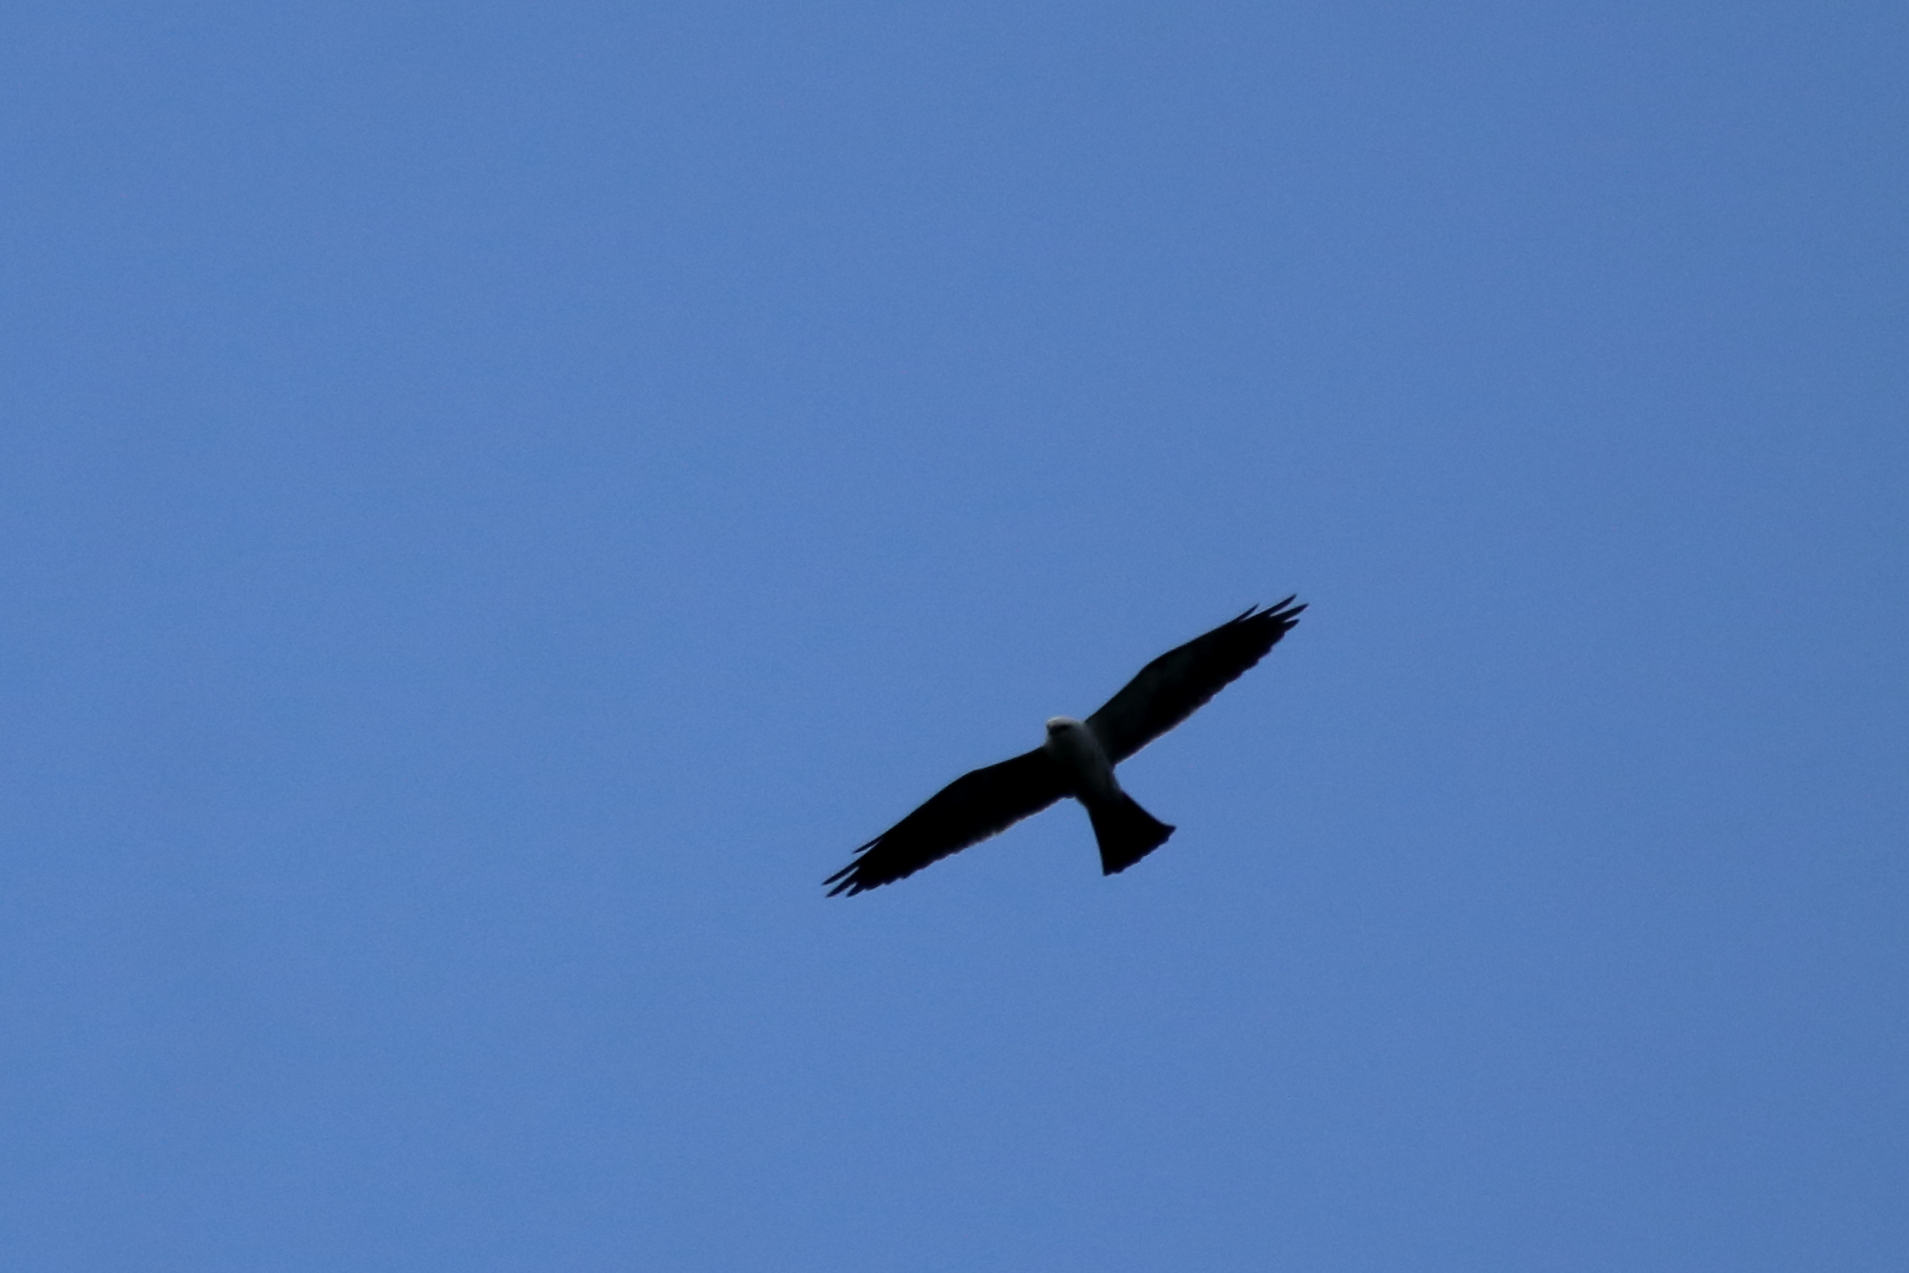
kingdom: Animalia
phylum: Chordata
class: Aves
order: Accipitriformes
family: Accipitridae
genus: Ictinia
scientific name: Ictinia mississippiensis
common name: Mississippi kite
